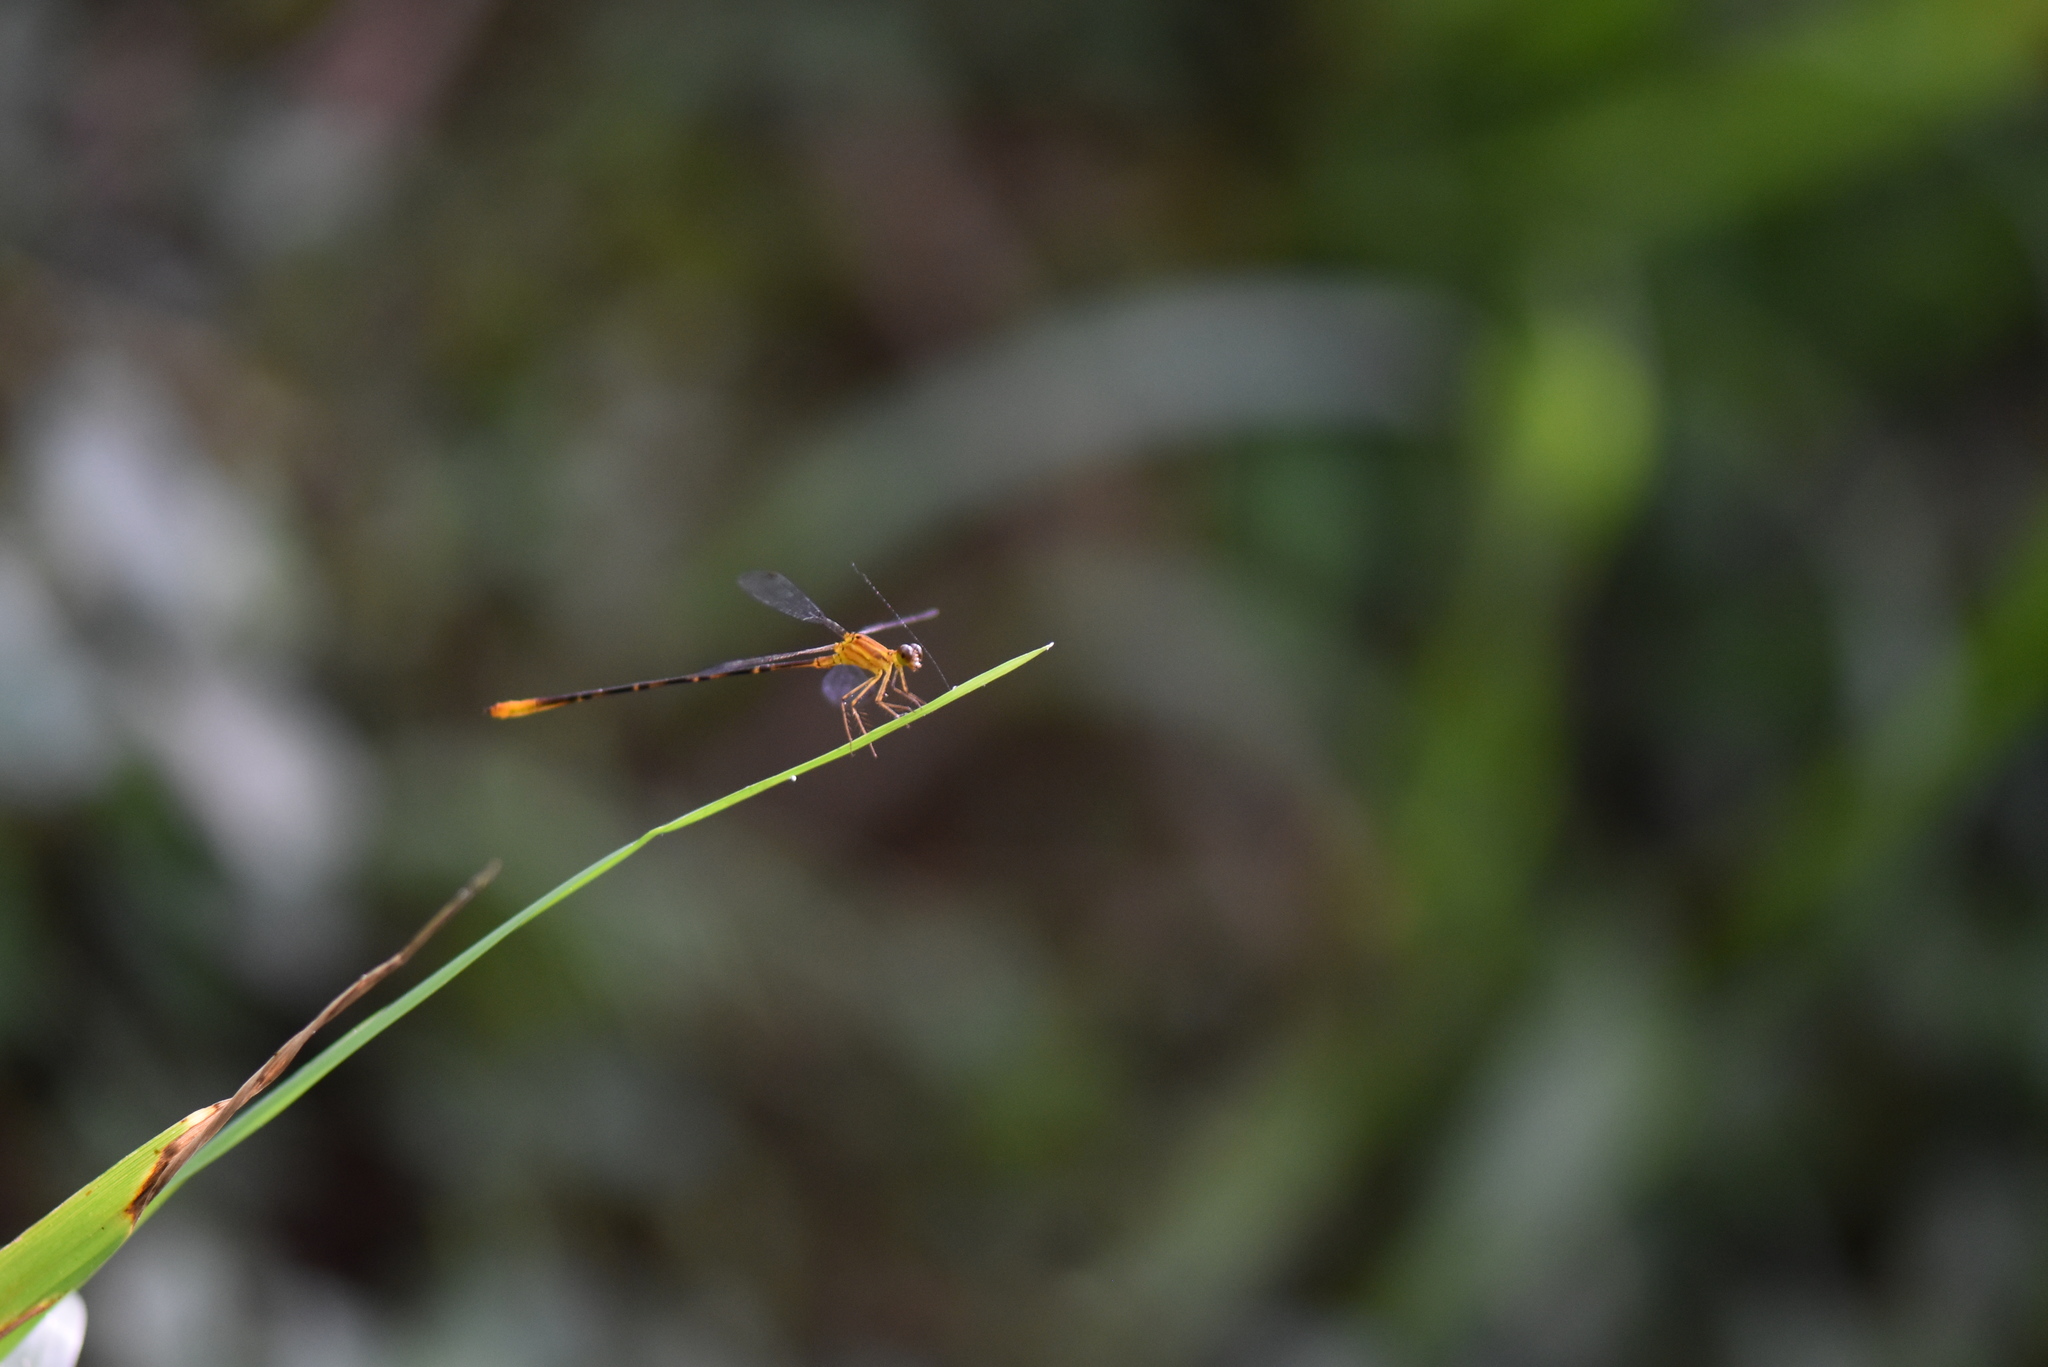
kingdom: Animalia
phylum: Arthropoda
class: Insecta
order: Odonata
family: Heteragrionidae
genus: Heteragrion
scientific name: Heteragrion aurantiacum
